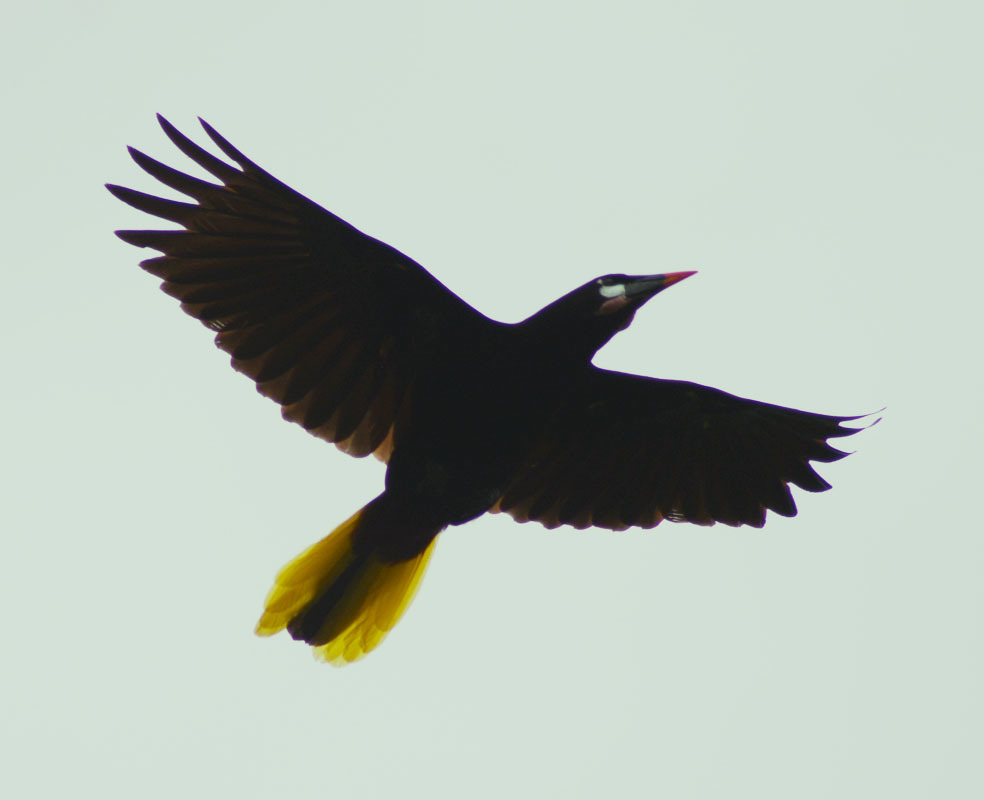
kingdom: Animalia
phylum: Chordata
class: Aves
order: Passeriformes
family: Icteridae
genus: Psarocolius
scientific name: Psarocolius montezuma
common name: Montezuma oropendola
